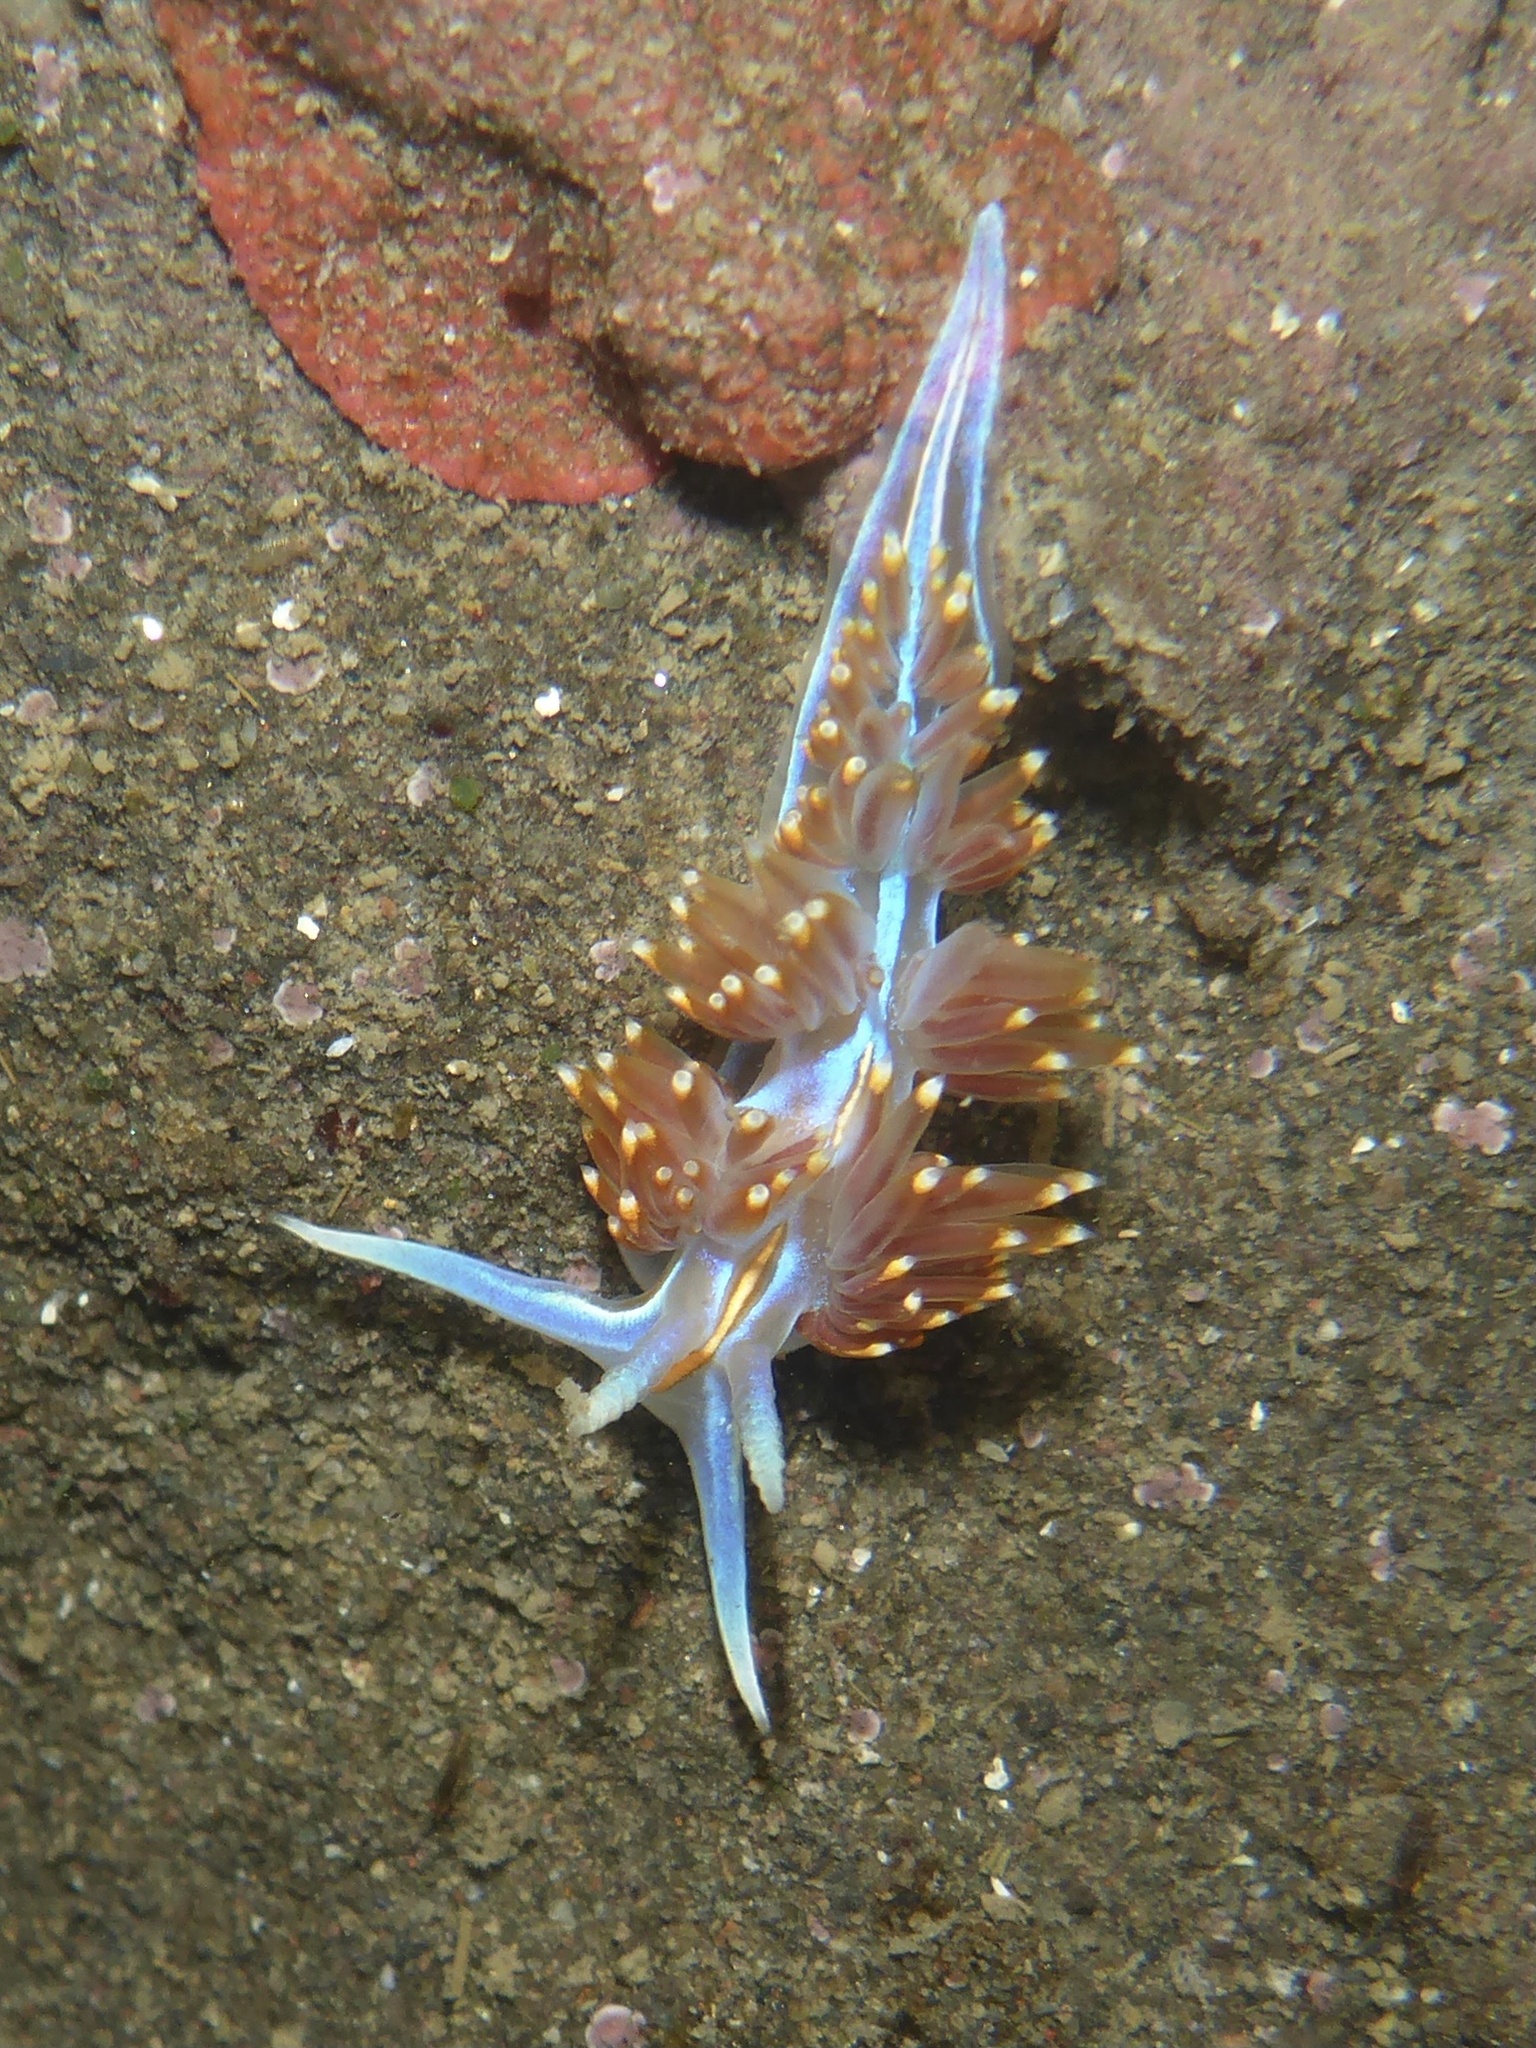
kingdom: Animalia
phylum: Mollusca
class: Gastropoda
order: Nudibranchia
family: Myrrhinidae
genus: Hermissenda
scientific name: Hermissenda opalescens
